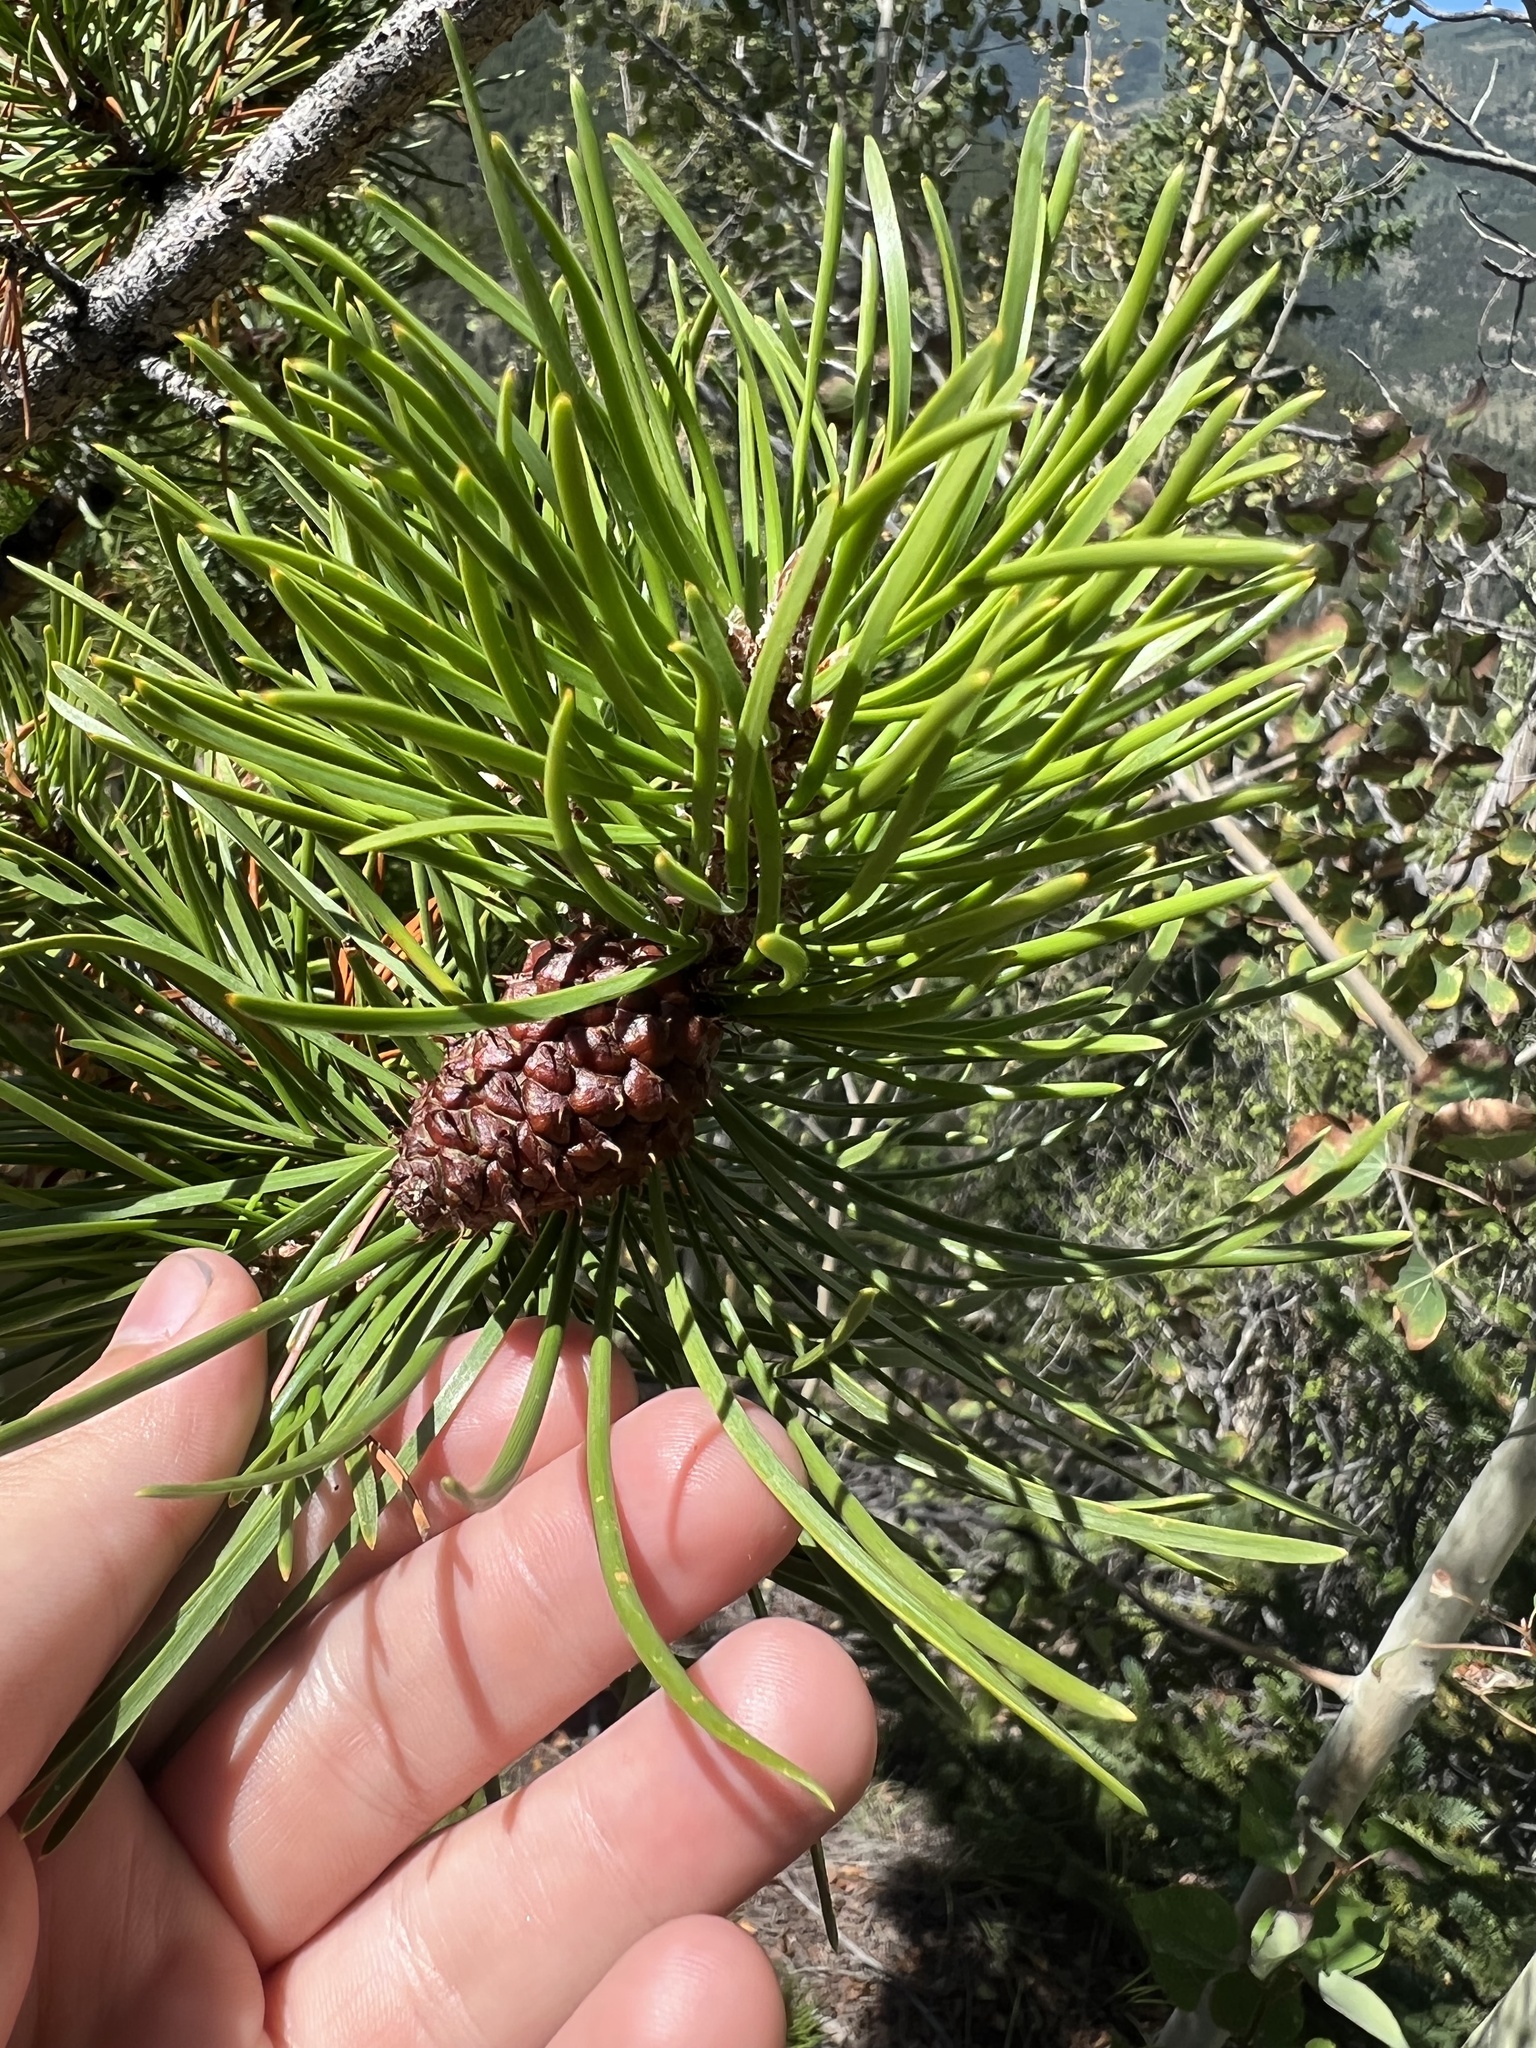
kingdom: Plantae
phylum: Tracheophyta
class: Pinopsida
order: Pinales
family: Pinaceae
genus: Pinus
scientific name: Pinus contorta
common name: Lodgepole pine
